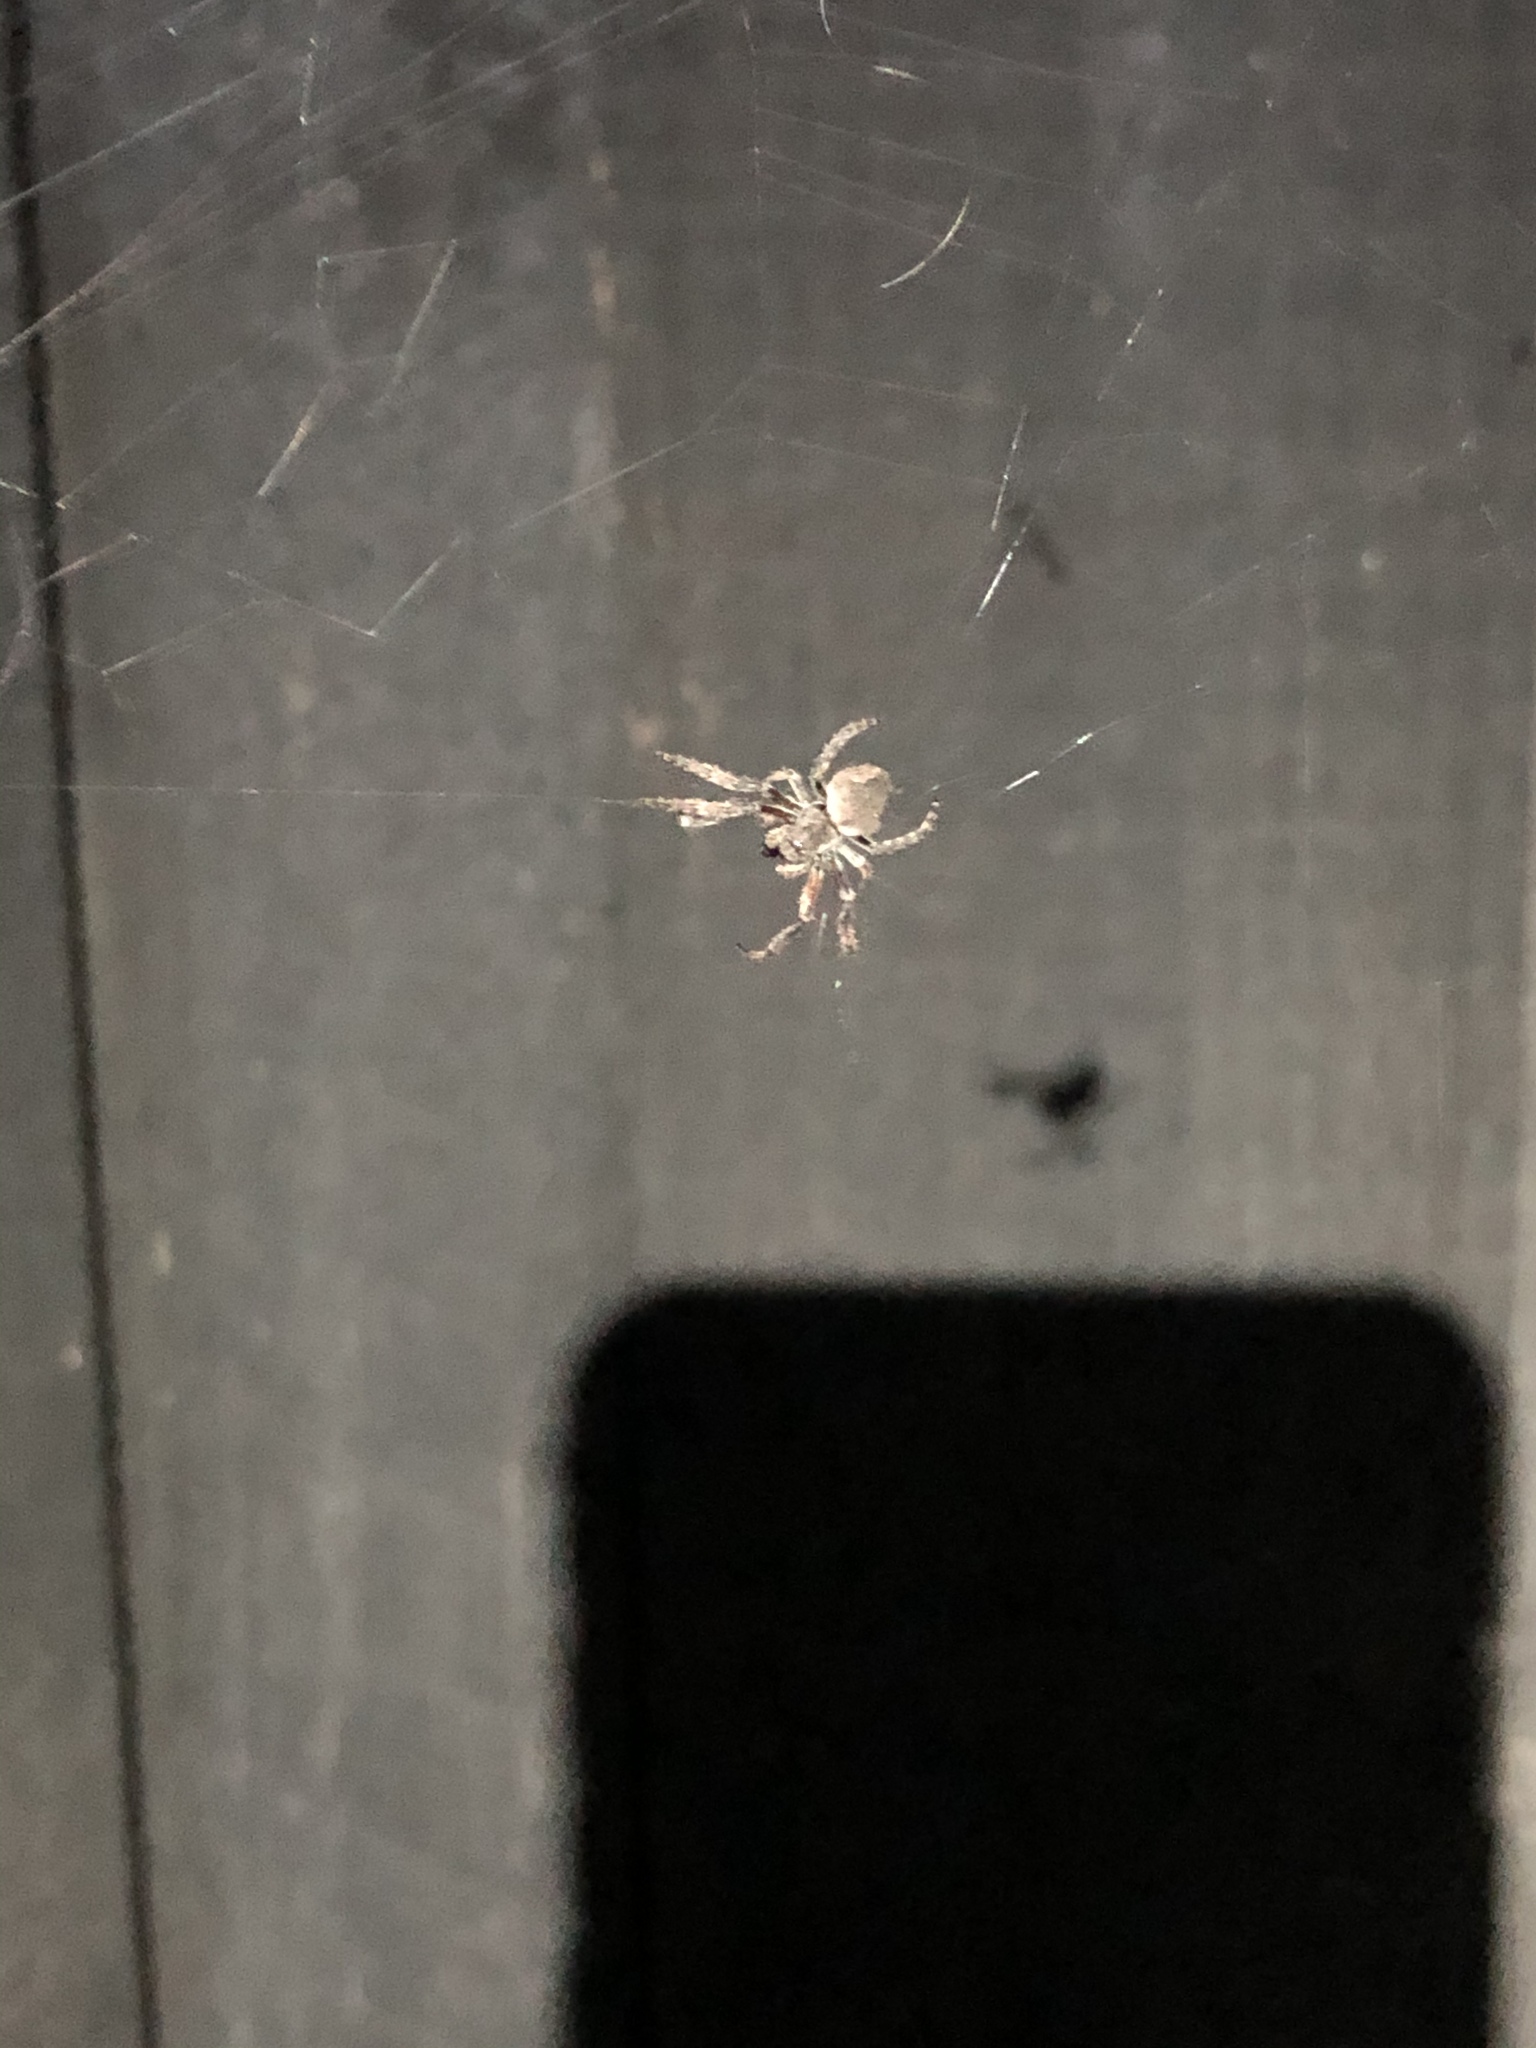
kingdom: Animalia
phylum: Arthropoda
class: Arachnida
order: Araneae
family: Araneidae
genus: Eriophora
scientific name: Eriophora pustulosa
